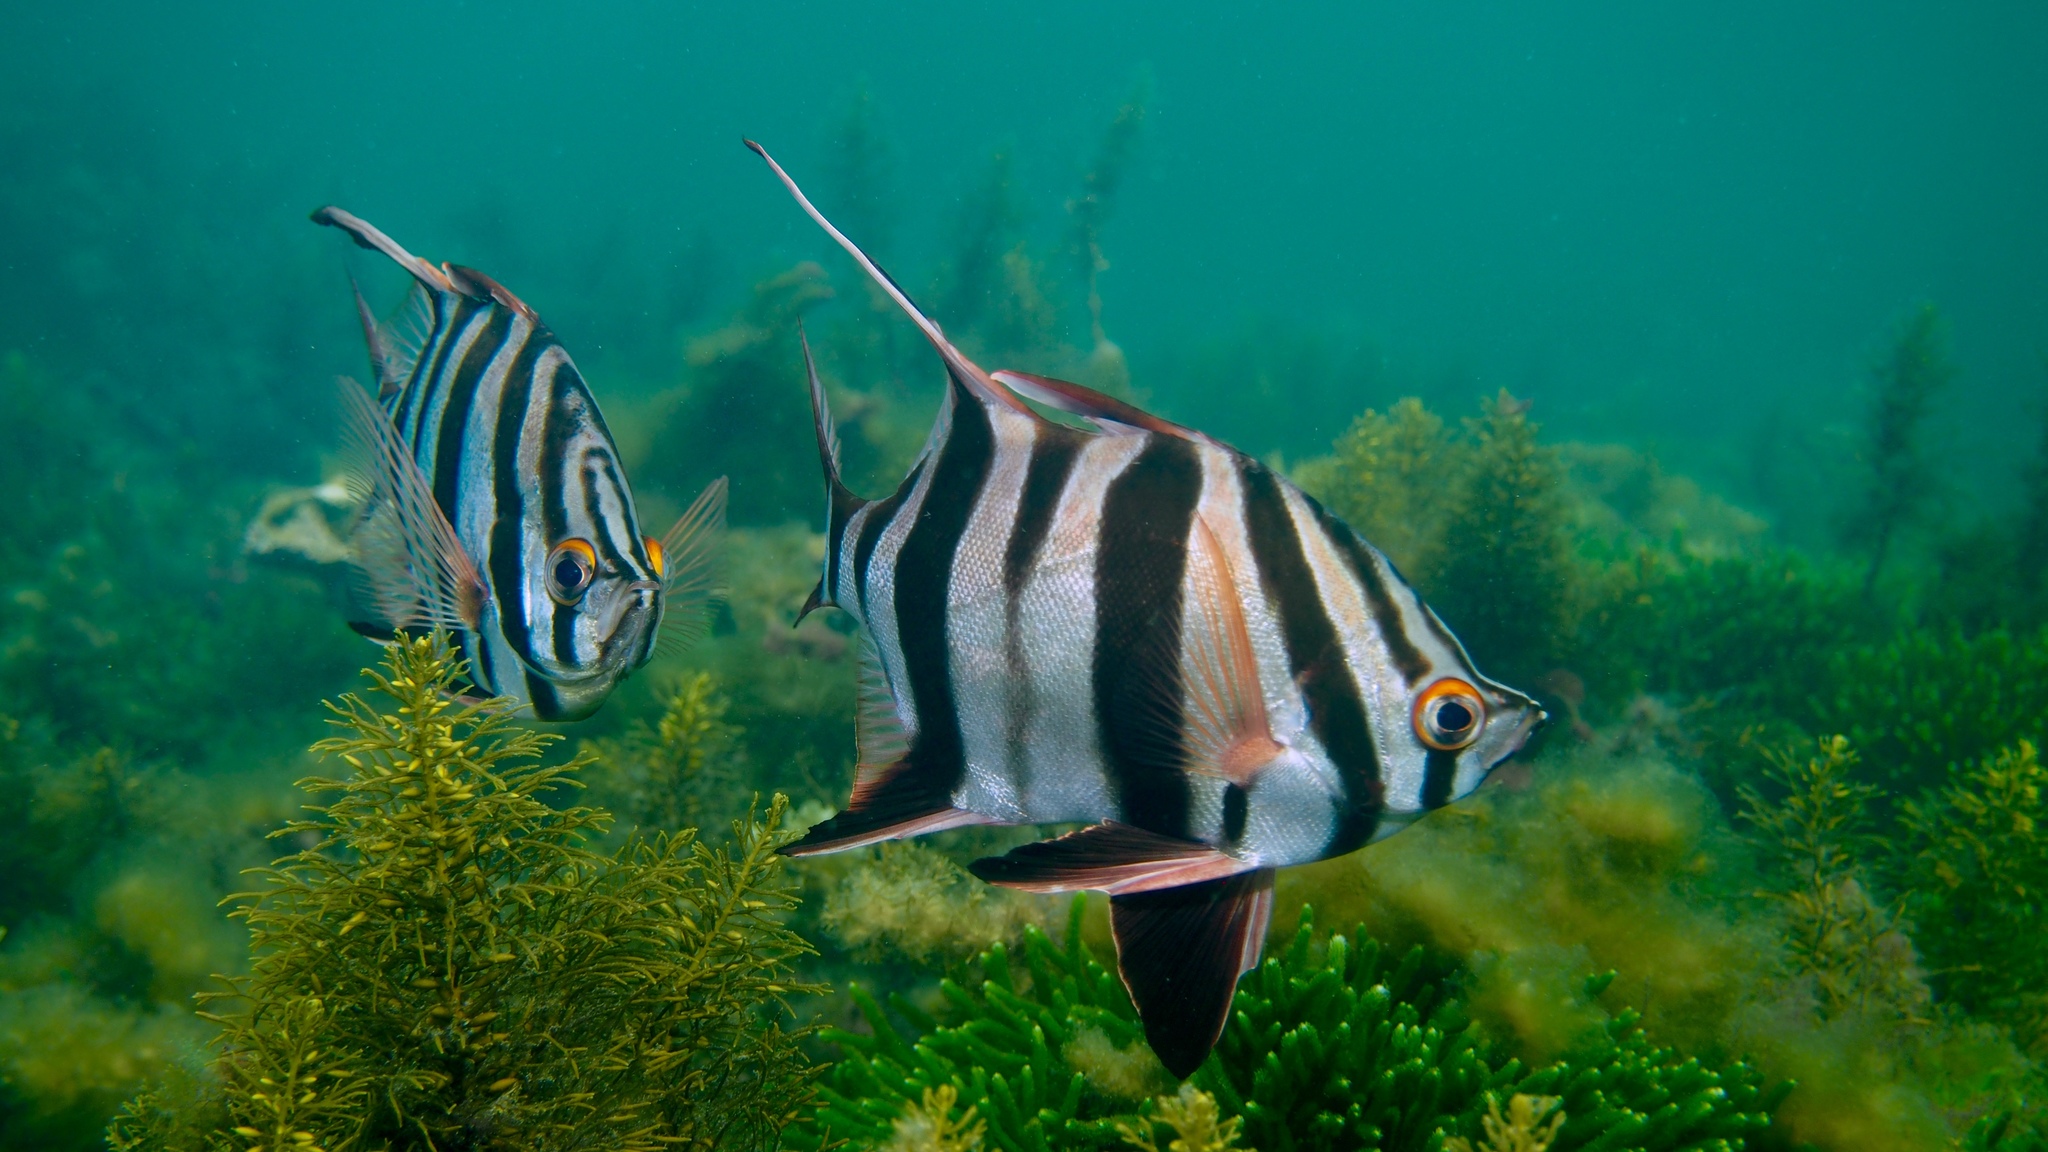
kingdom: Animalia
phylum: Chordata
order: Perciformes
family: Enoplosidae
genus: Enoplosus
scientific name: Enoplosus armatus
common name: Old wife
